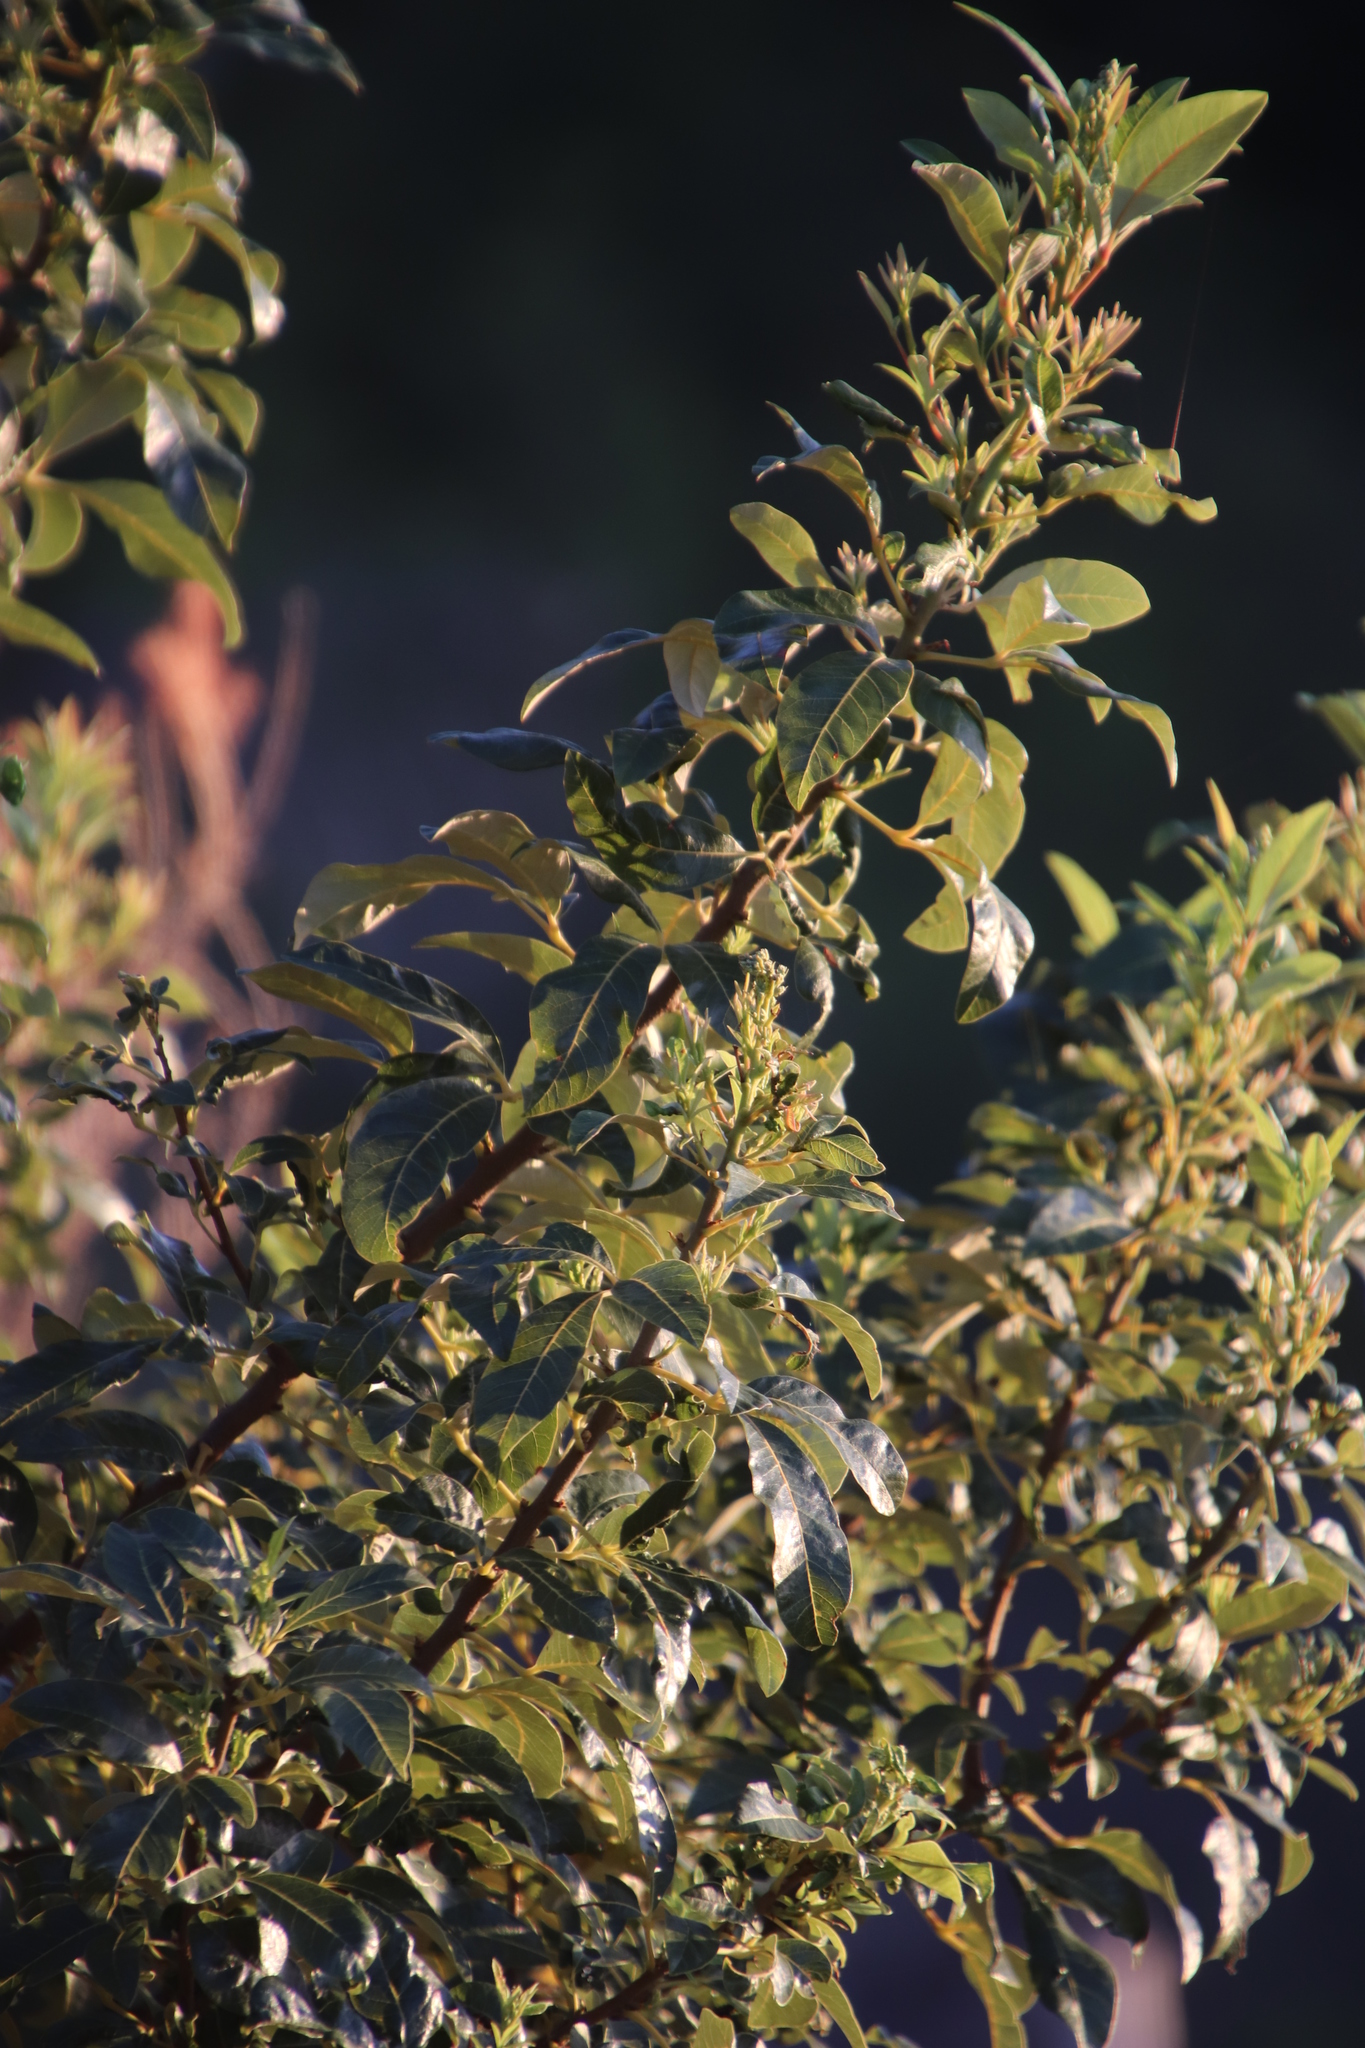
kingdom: Plantae
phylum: Tracheophyta
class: Magnoliopsida
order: Sapindales
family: Anacardiaceae
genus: Searsia
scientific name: Searsia tomentosa
